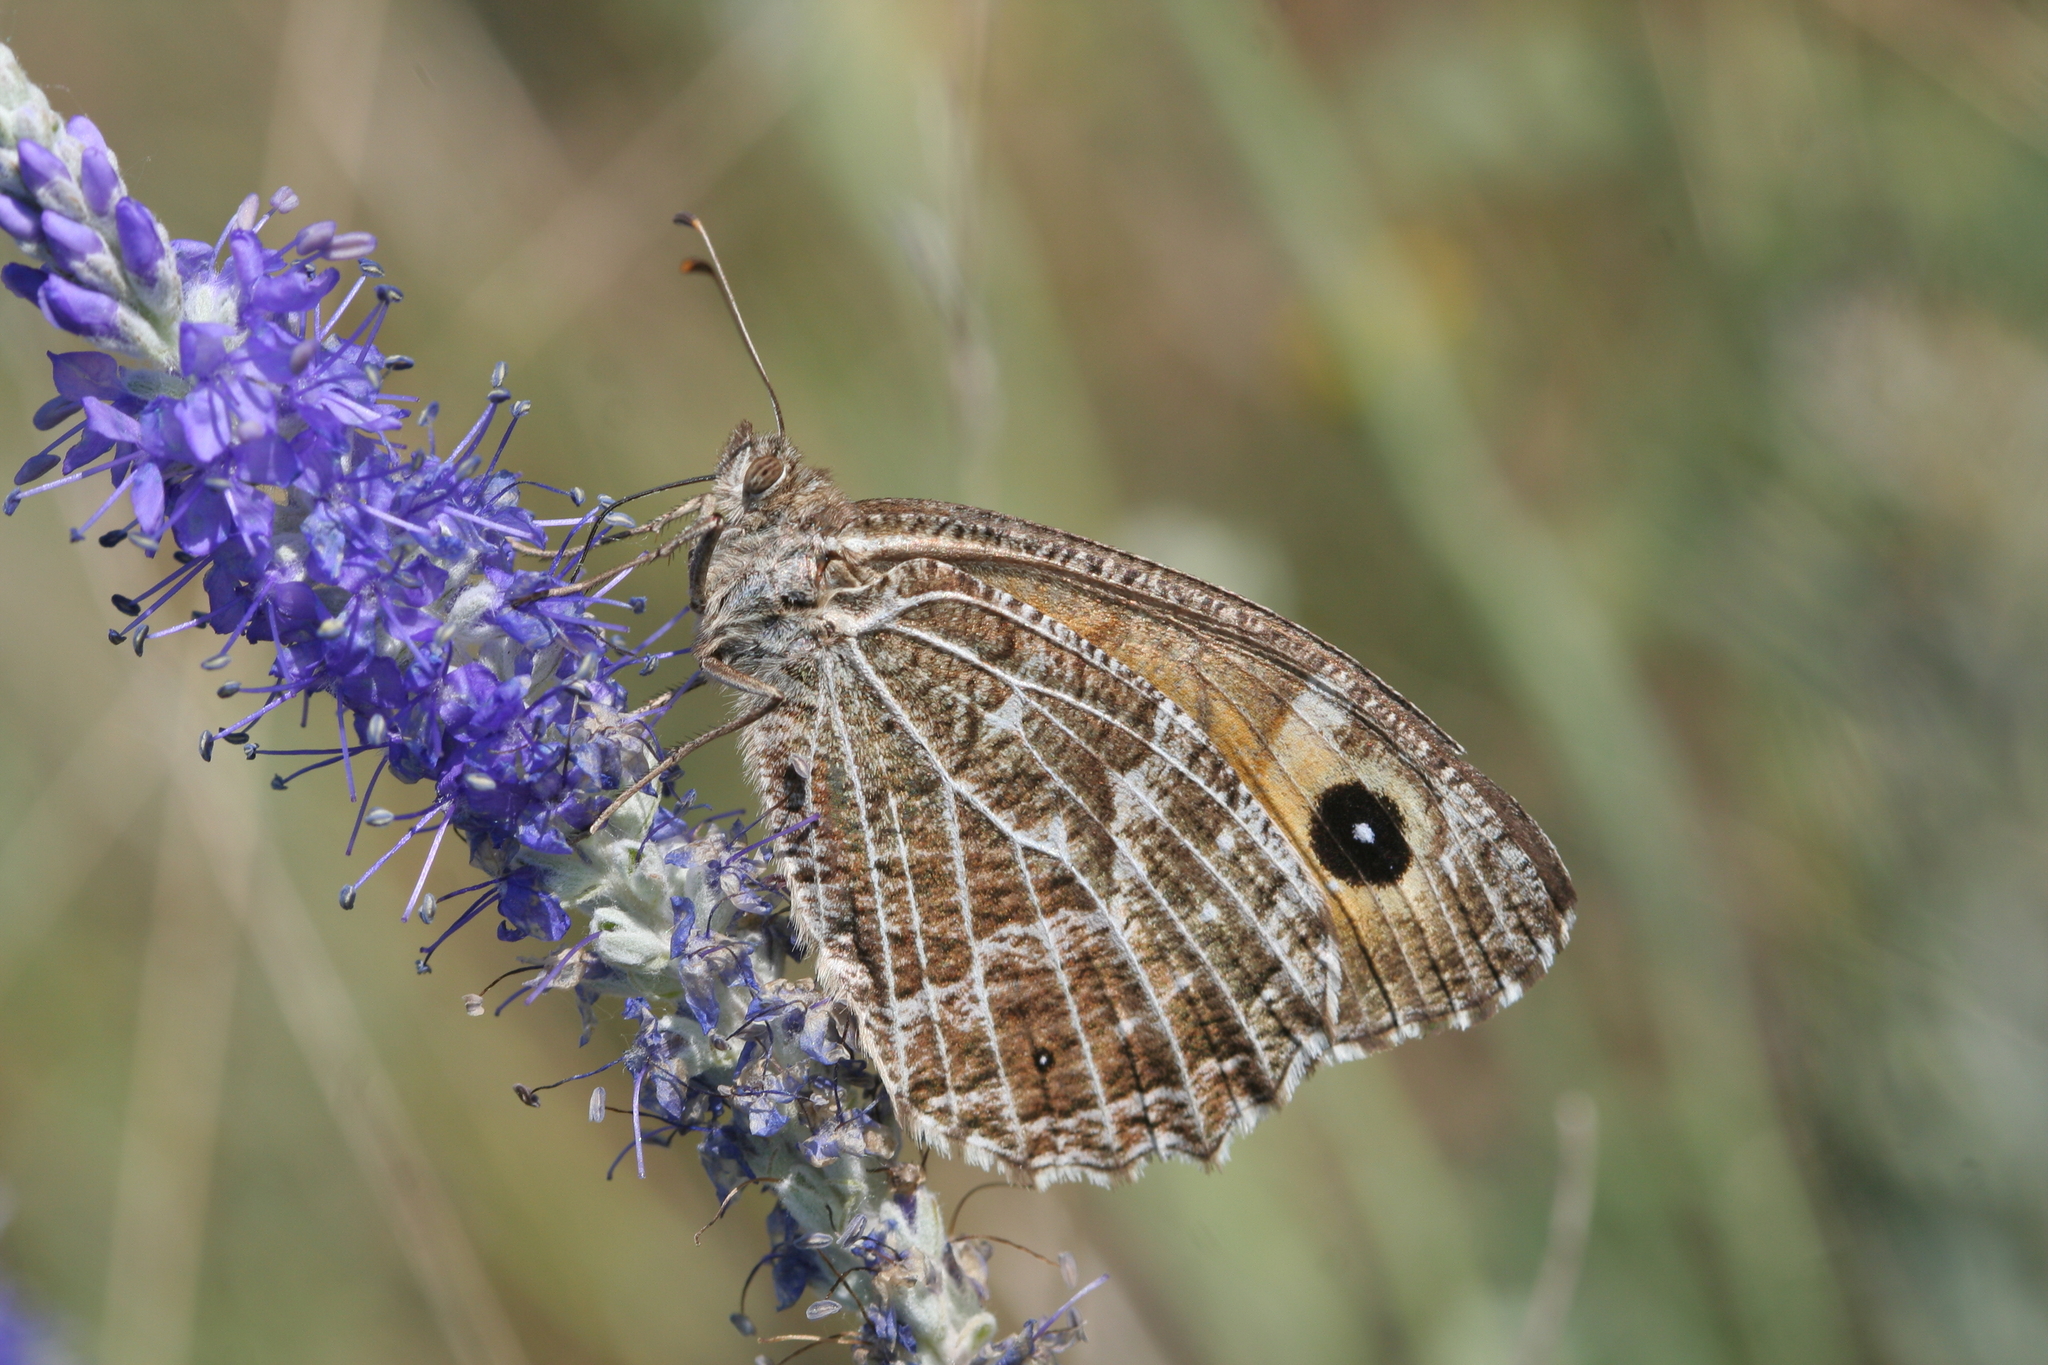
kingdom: Animalia
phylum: Arthropoda
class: Insecta
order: Lepidoptera
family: Nymphalidae
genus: Hipparchia
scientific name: Hipparchia autonoe
